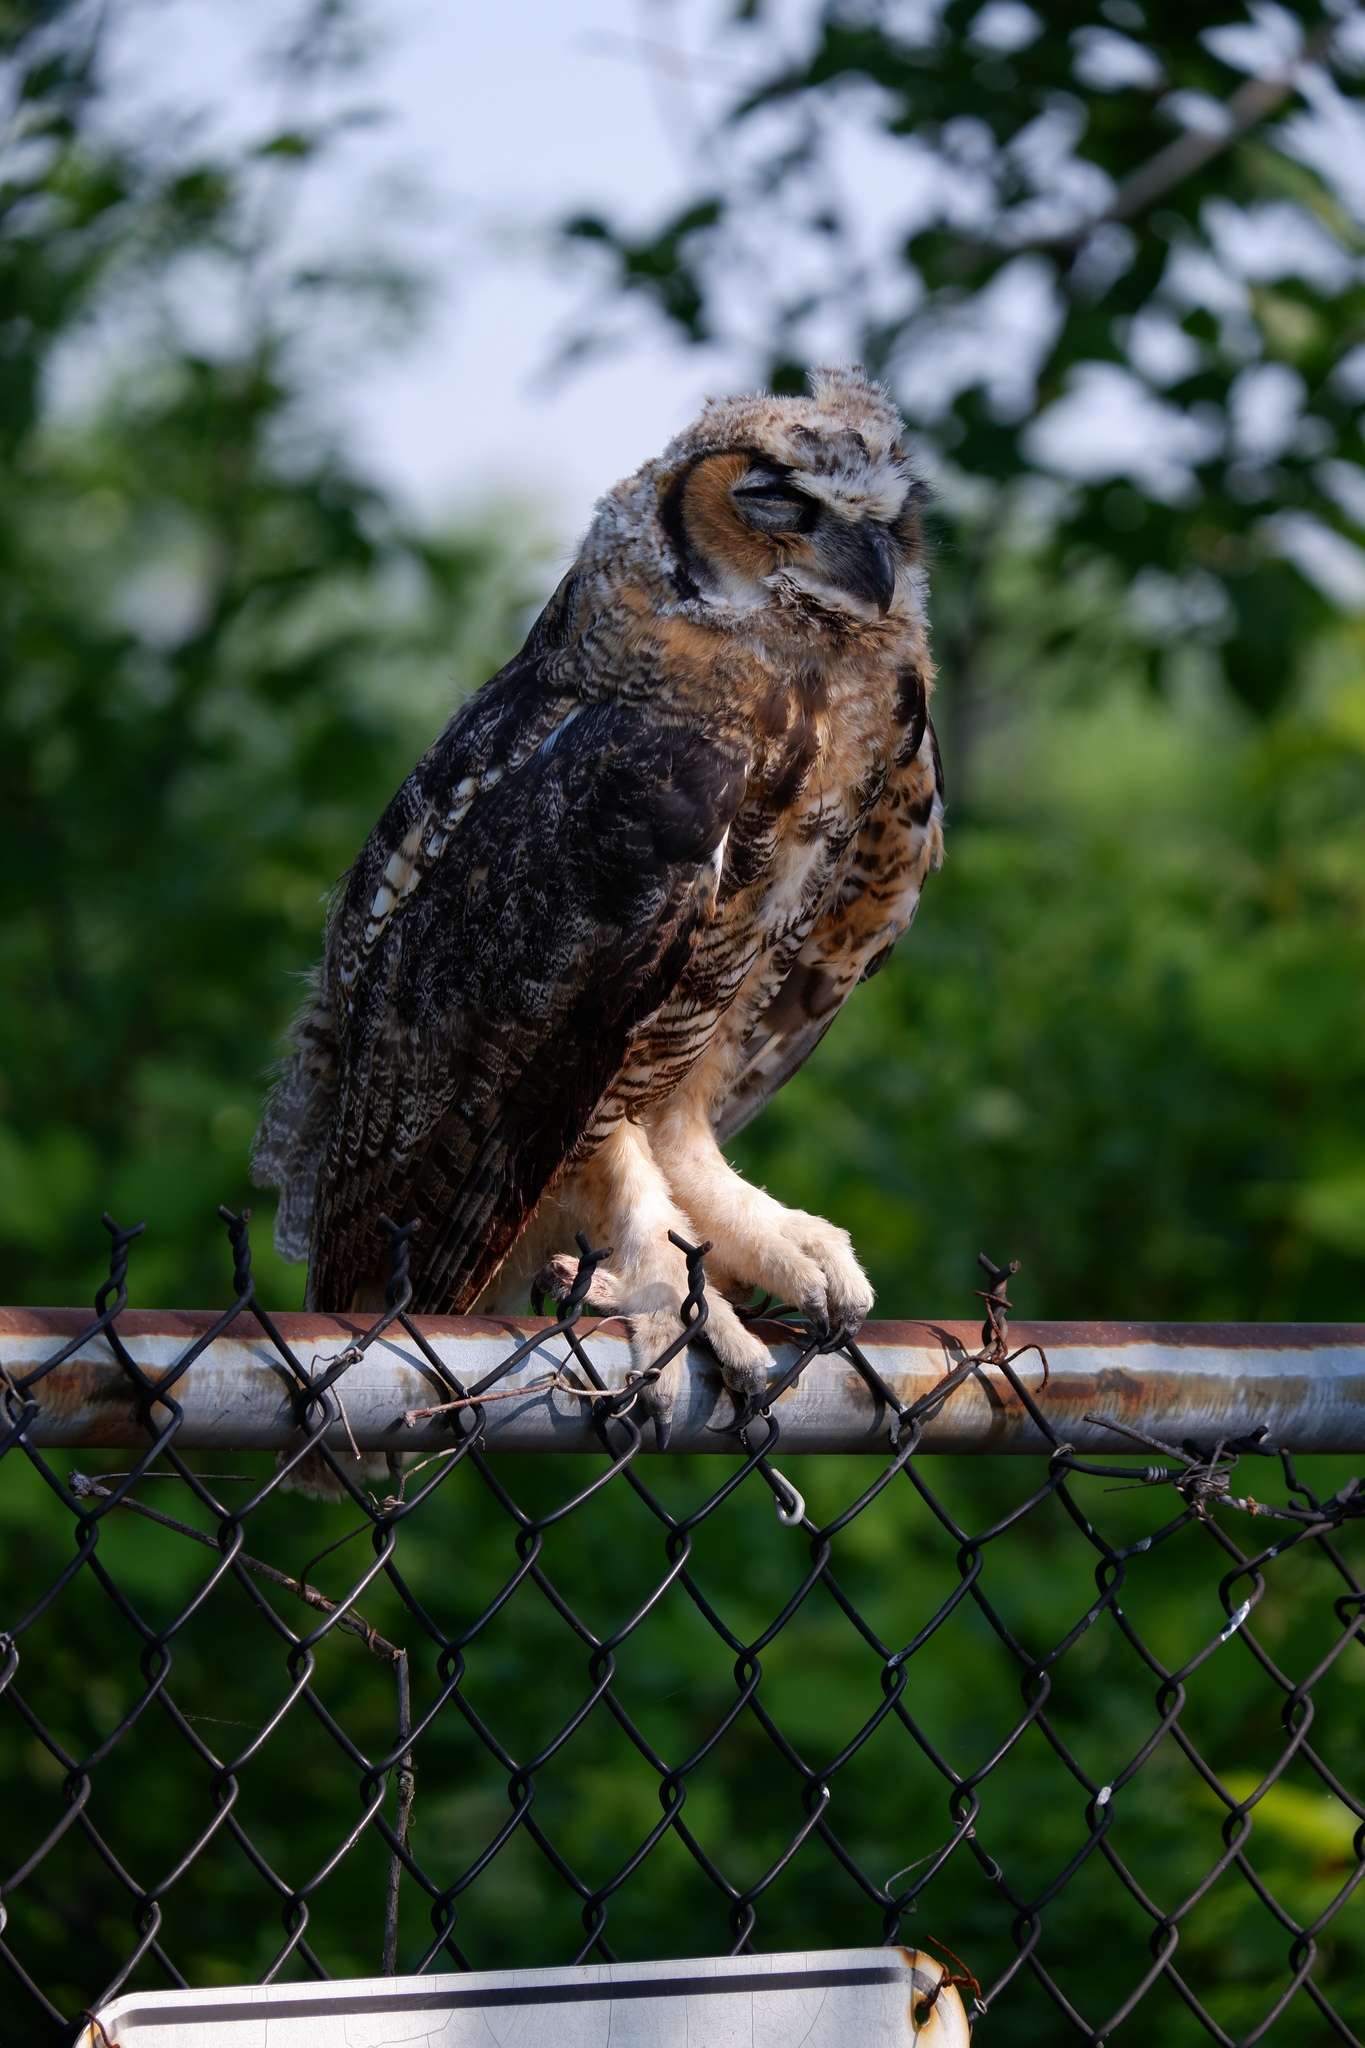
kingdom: Animalia
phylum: Chordata
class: Aves
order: Strigiformes
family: Strigidae
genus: Bubo
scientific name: Bubo virginianus
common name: Great horned owl
